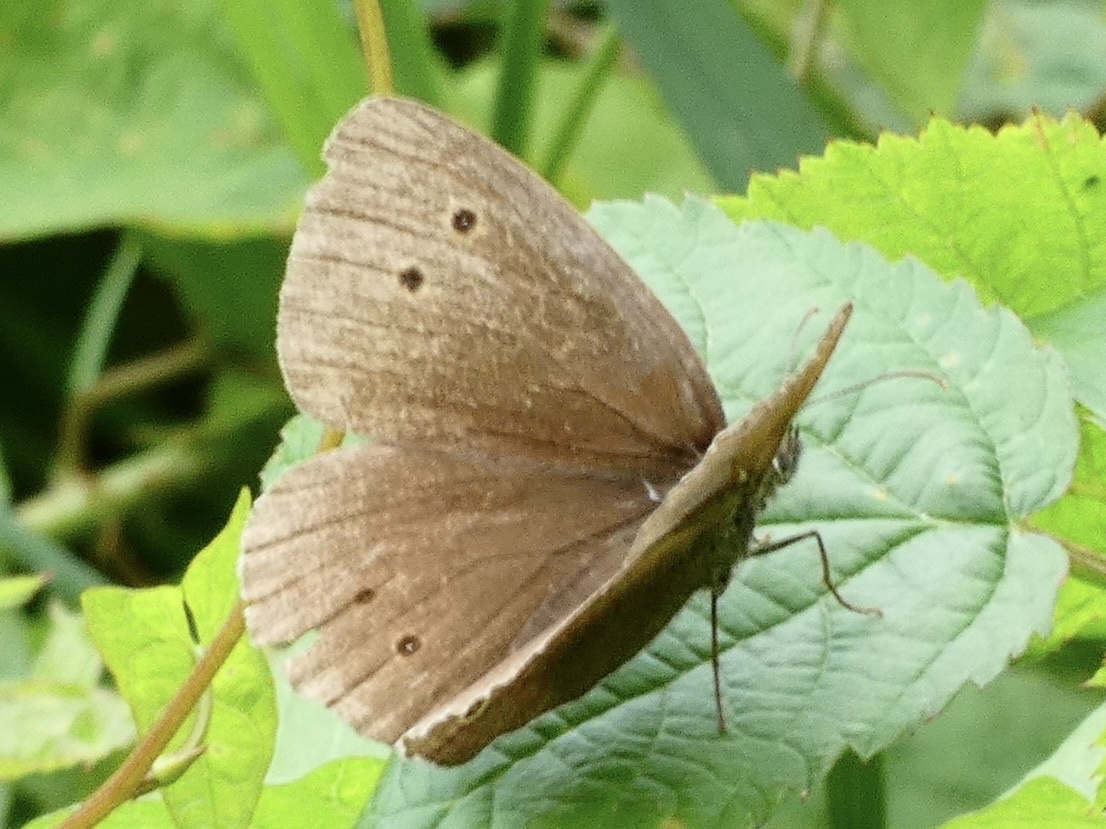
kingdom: Animalia
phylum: Arthropoda
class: Insecta
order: Lepidoptera
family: Nymphalidae
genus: Aphantopus
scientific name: Aphantopus hyperantus
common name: Ringlet
